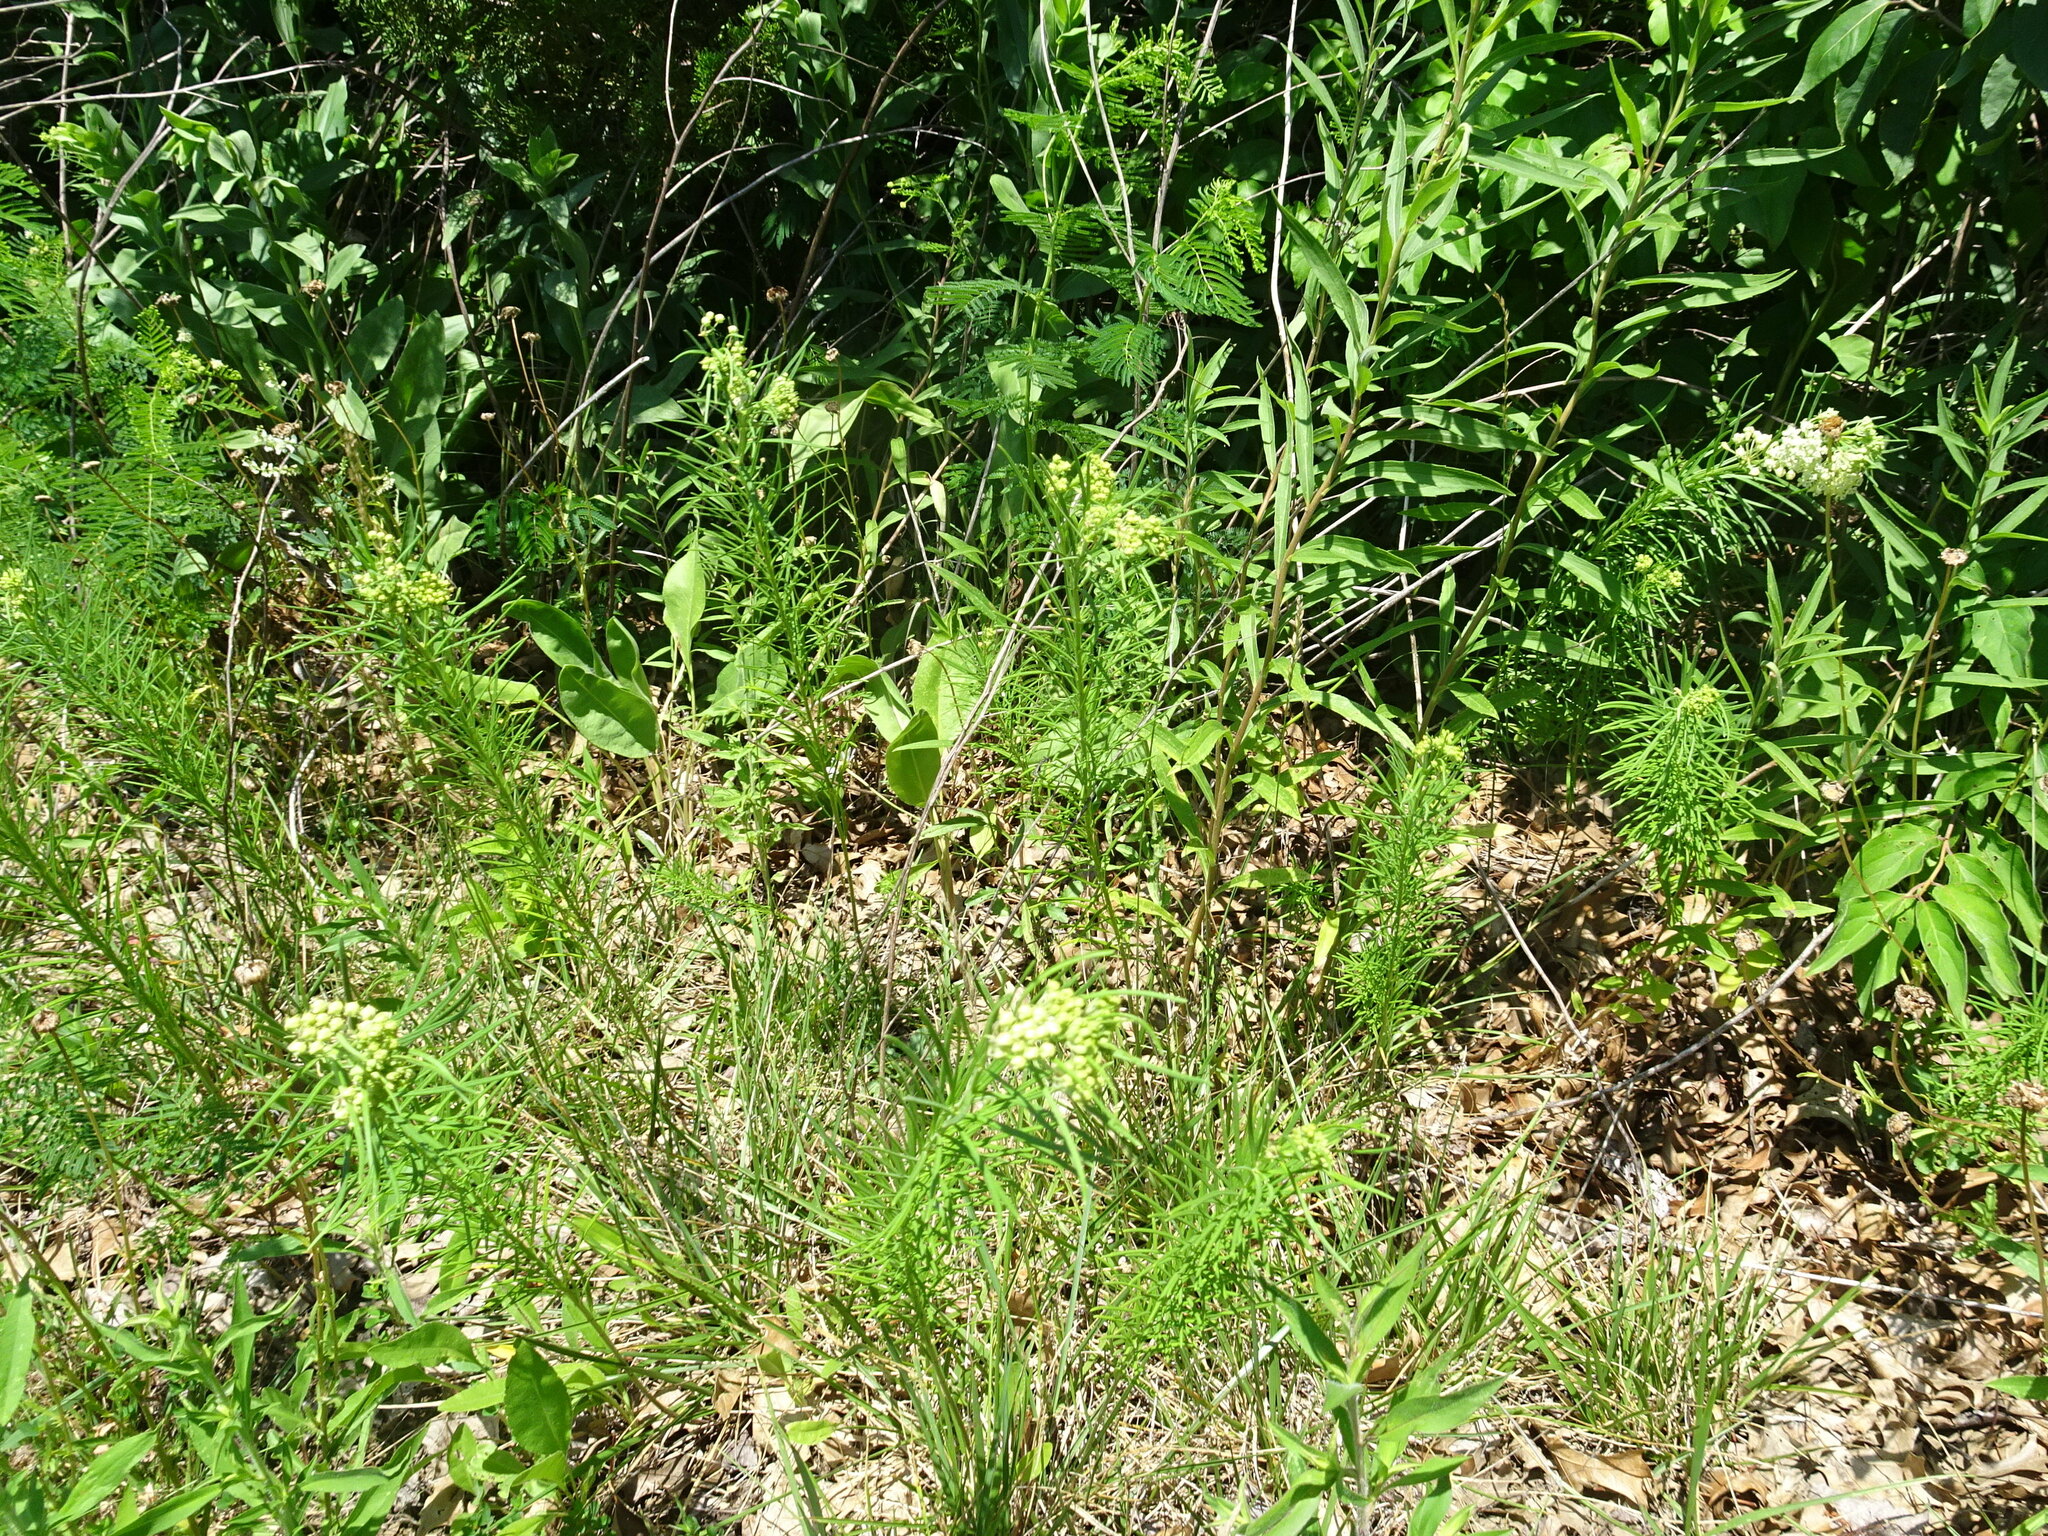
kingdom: Plantae
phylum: Tracheophyta
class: Magnoliopsida
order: Gentianales
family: Apocynaceae
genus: Asclepias
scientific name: Asclepias verticillata
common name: Eastern whorled milkweed
